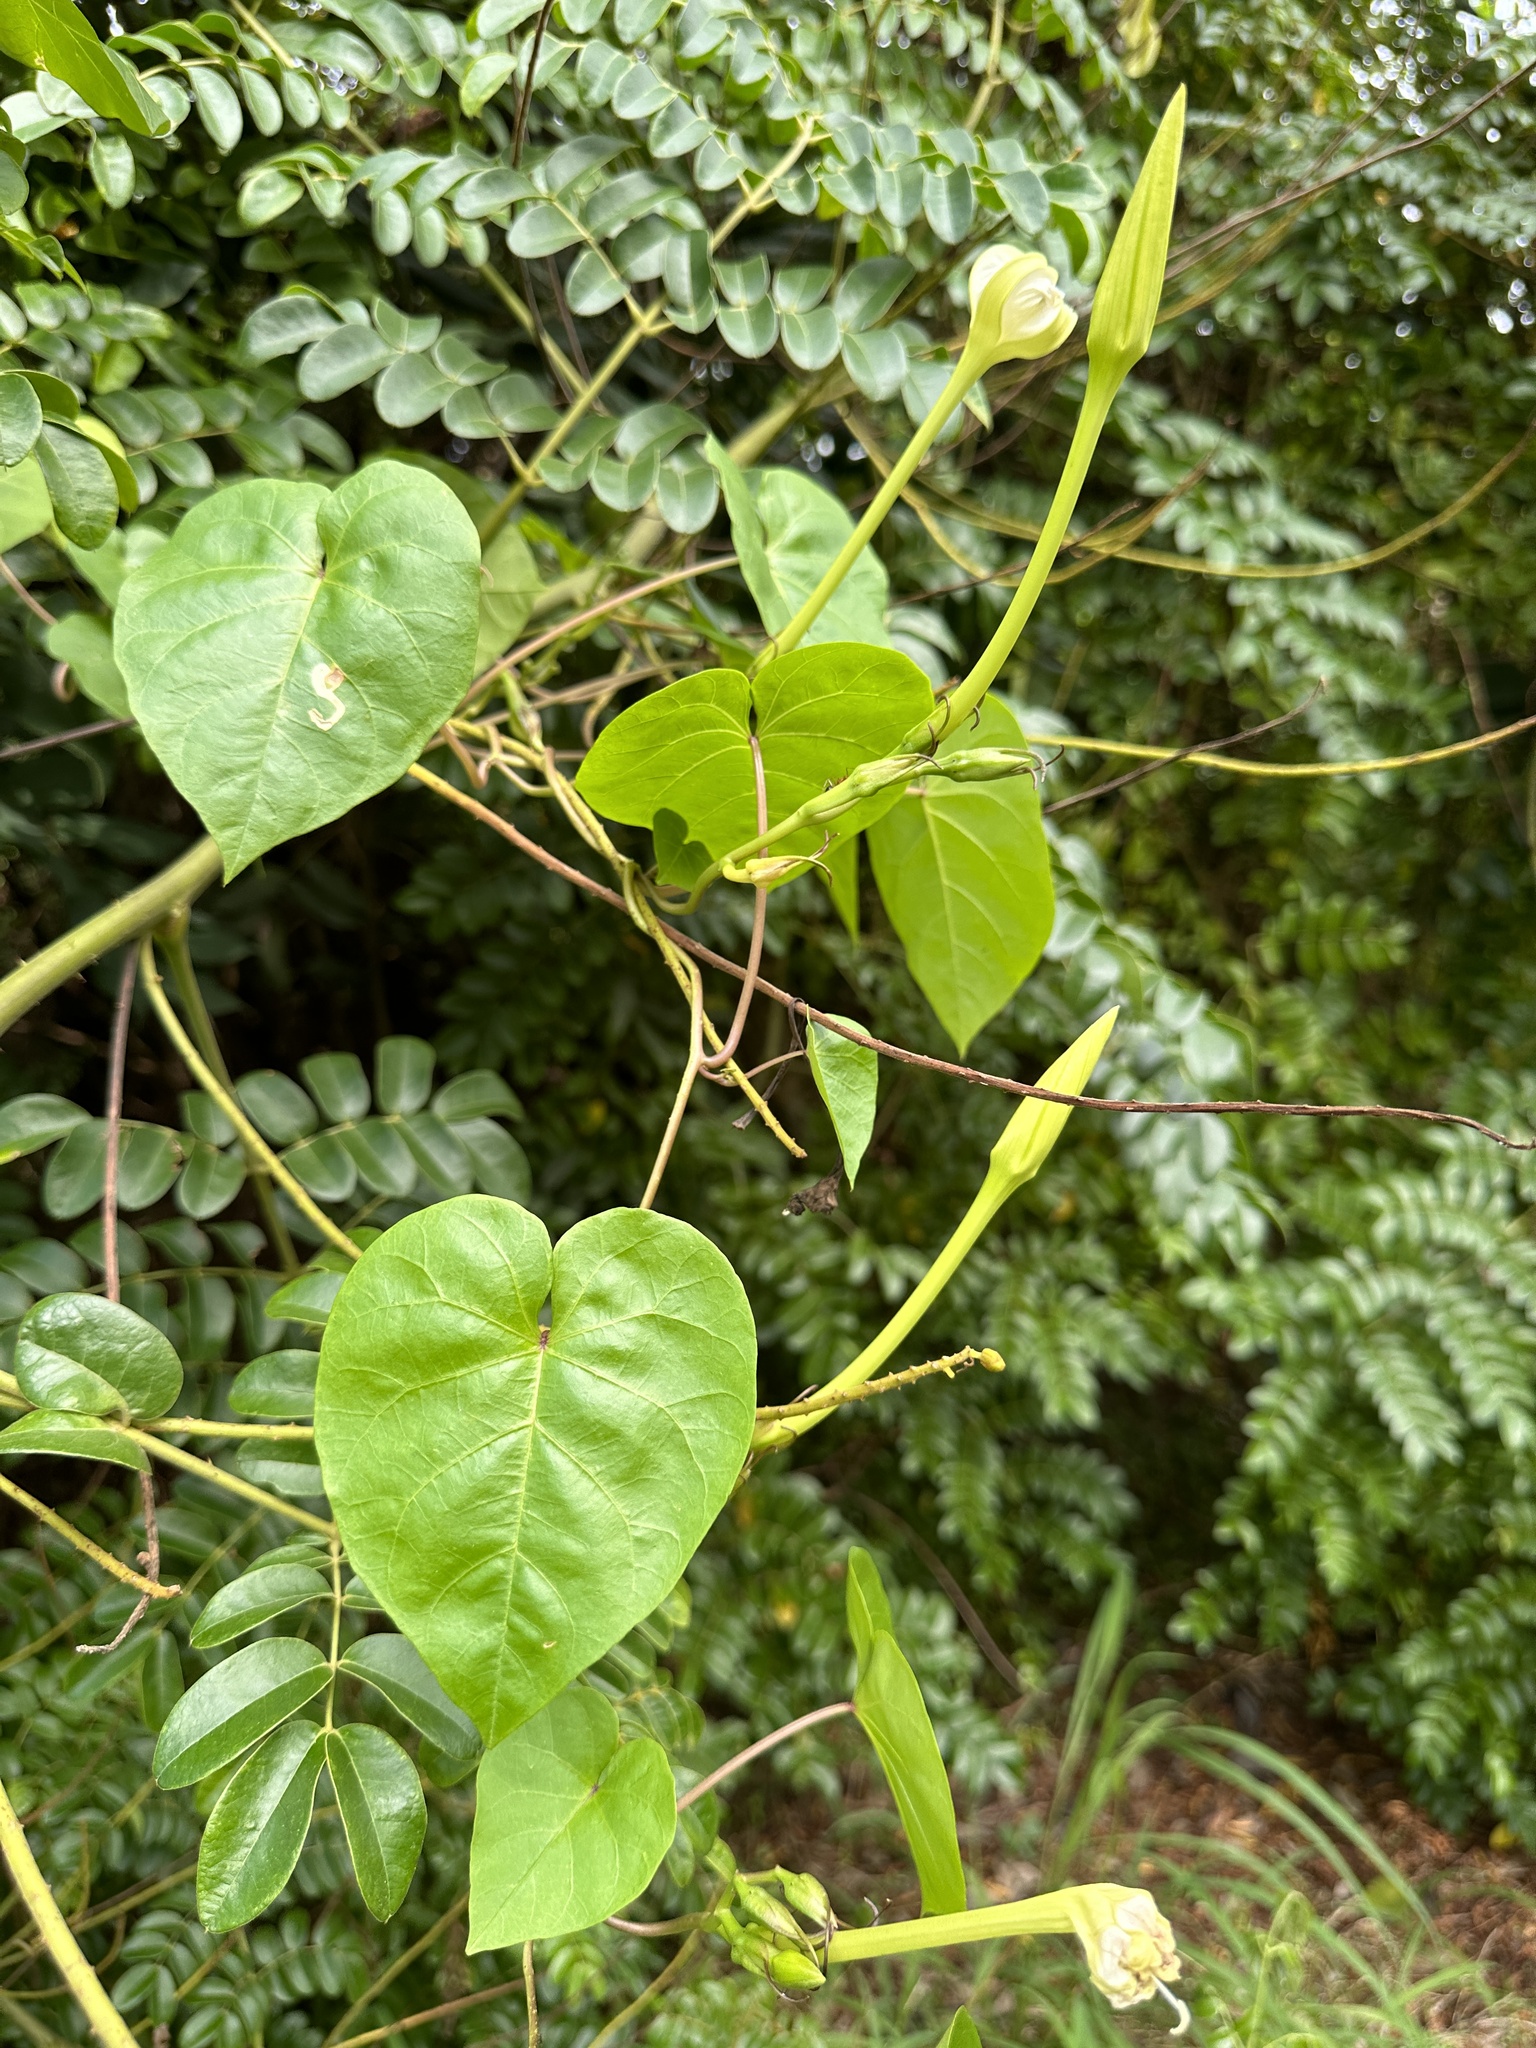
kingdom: Plantae
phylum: Tracheophyta
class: Magnoliopsida
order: Solanales
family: Convolvulaceae
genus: Ipomoea
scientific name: Ipomoea alba
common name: Moonflower
